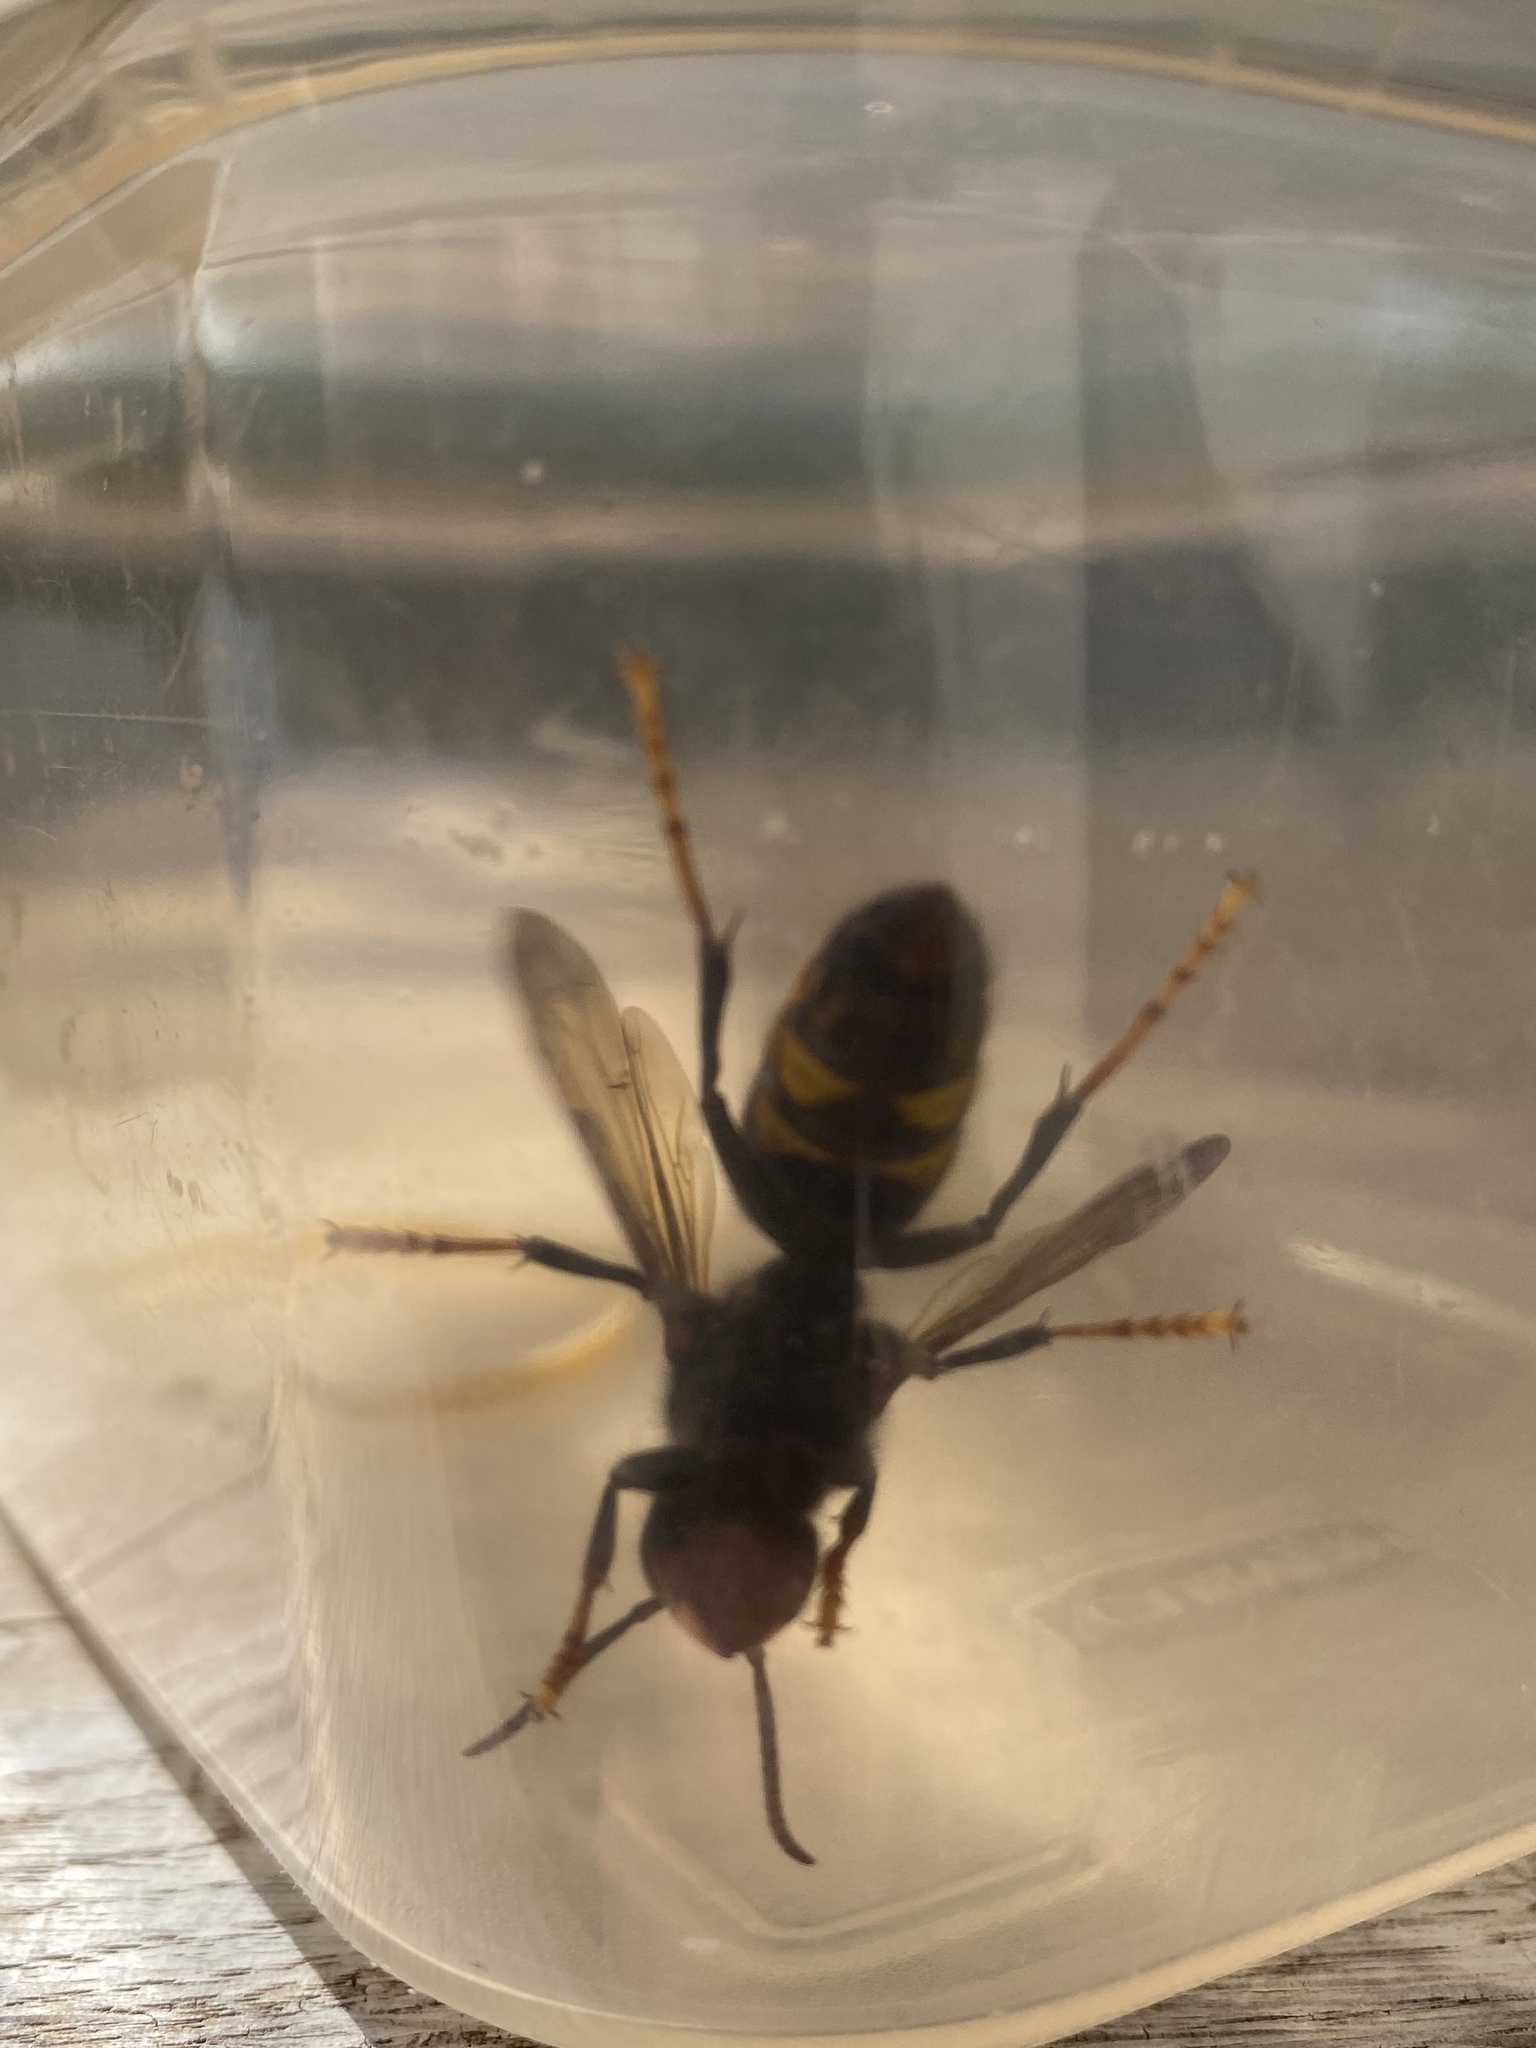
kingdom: Animalia
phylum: Arthropoda
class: Insecta
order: Hymenoptera
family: Vespidae
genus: Vespa
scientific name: Vespa velutina
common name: Asian hornet
